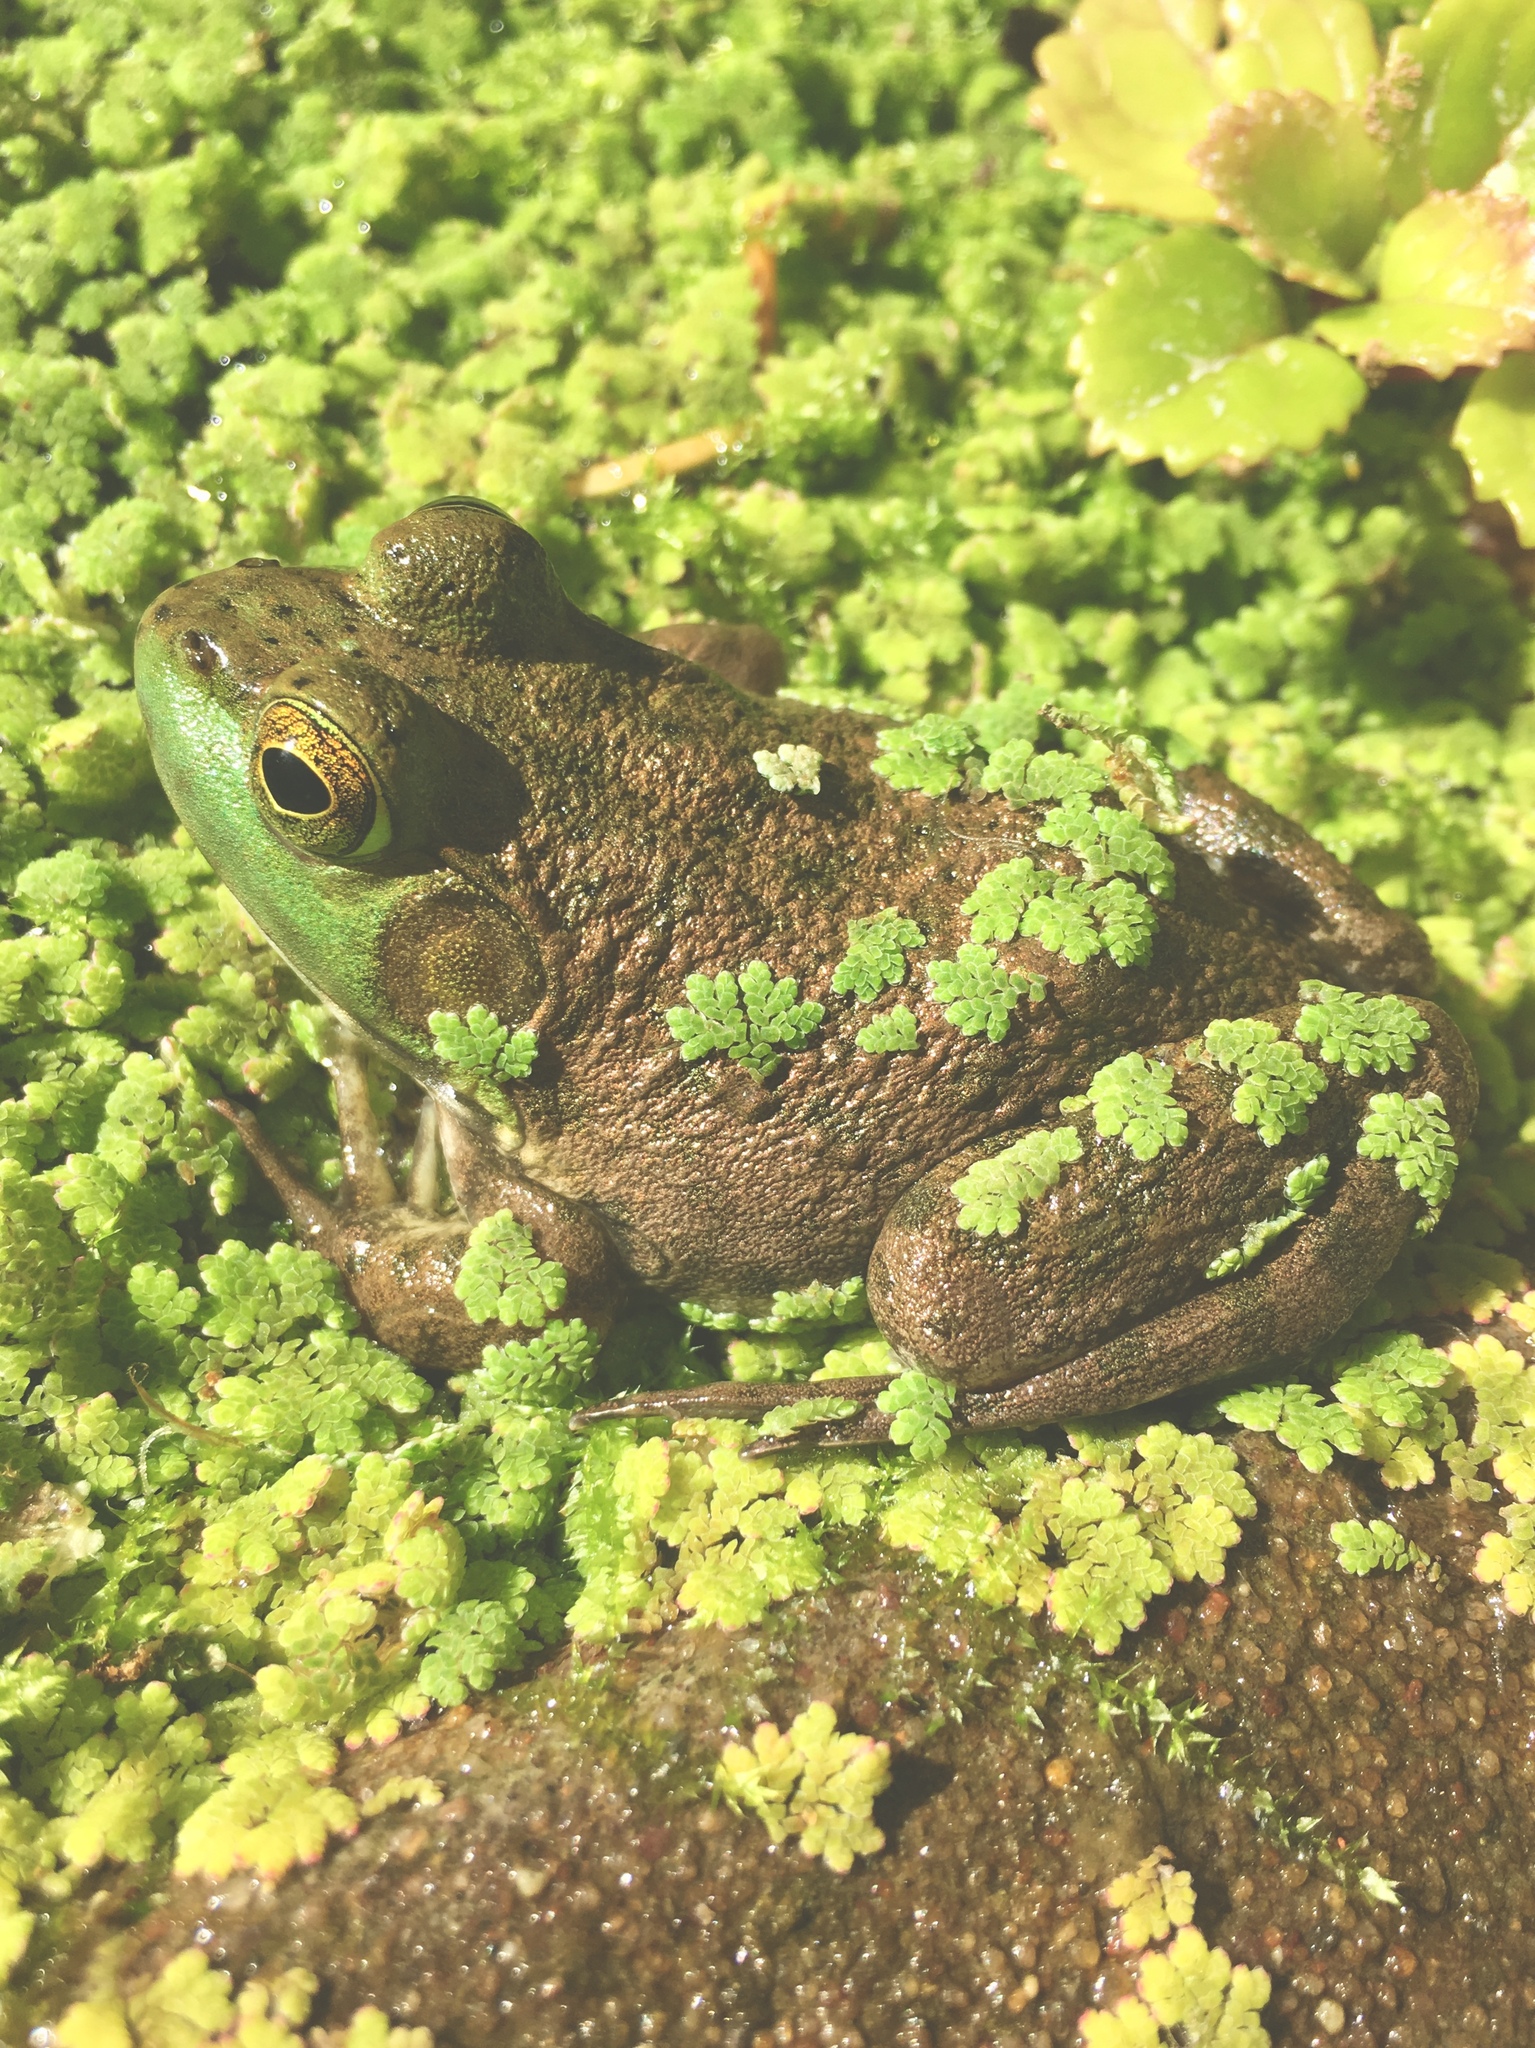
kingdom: Animalia
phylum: Chordata
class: Amphibia
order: Anura
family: Ranidae
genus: Lithobates
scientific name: Lithobates catesbeianus
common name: American bullfrog
